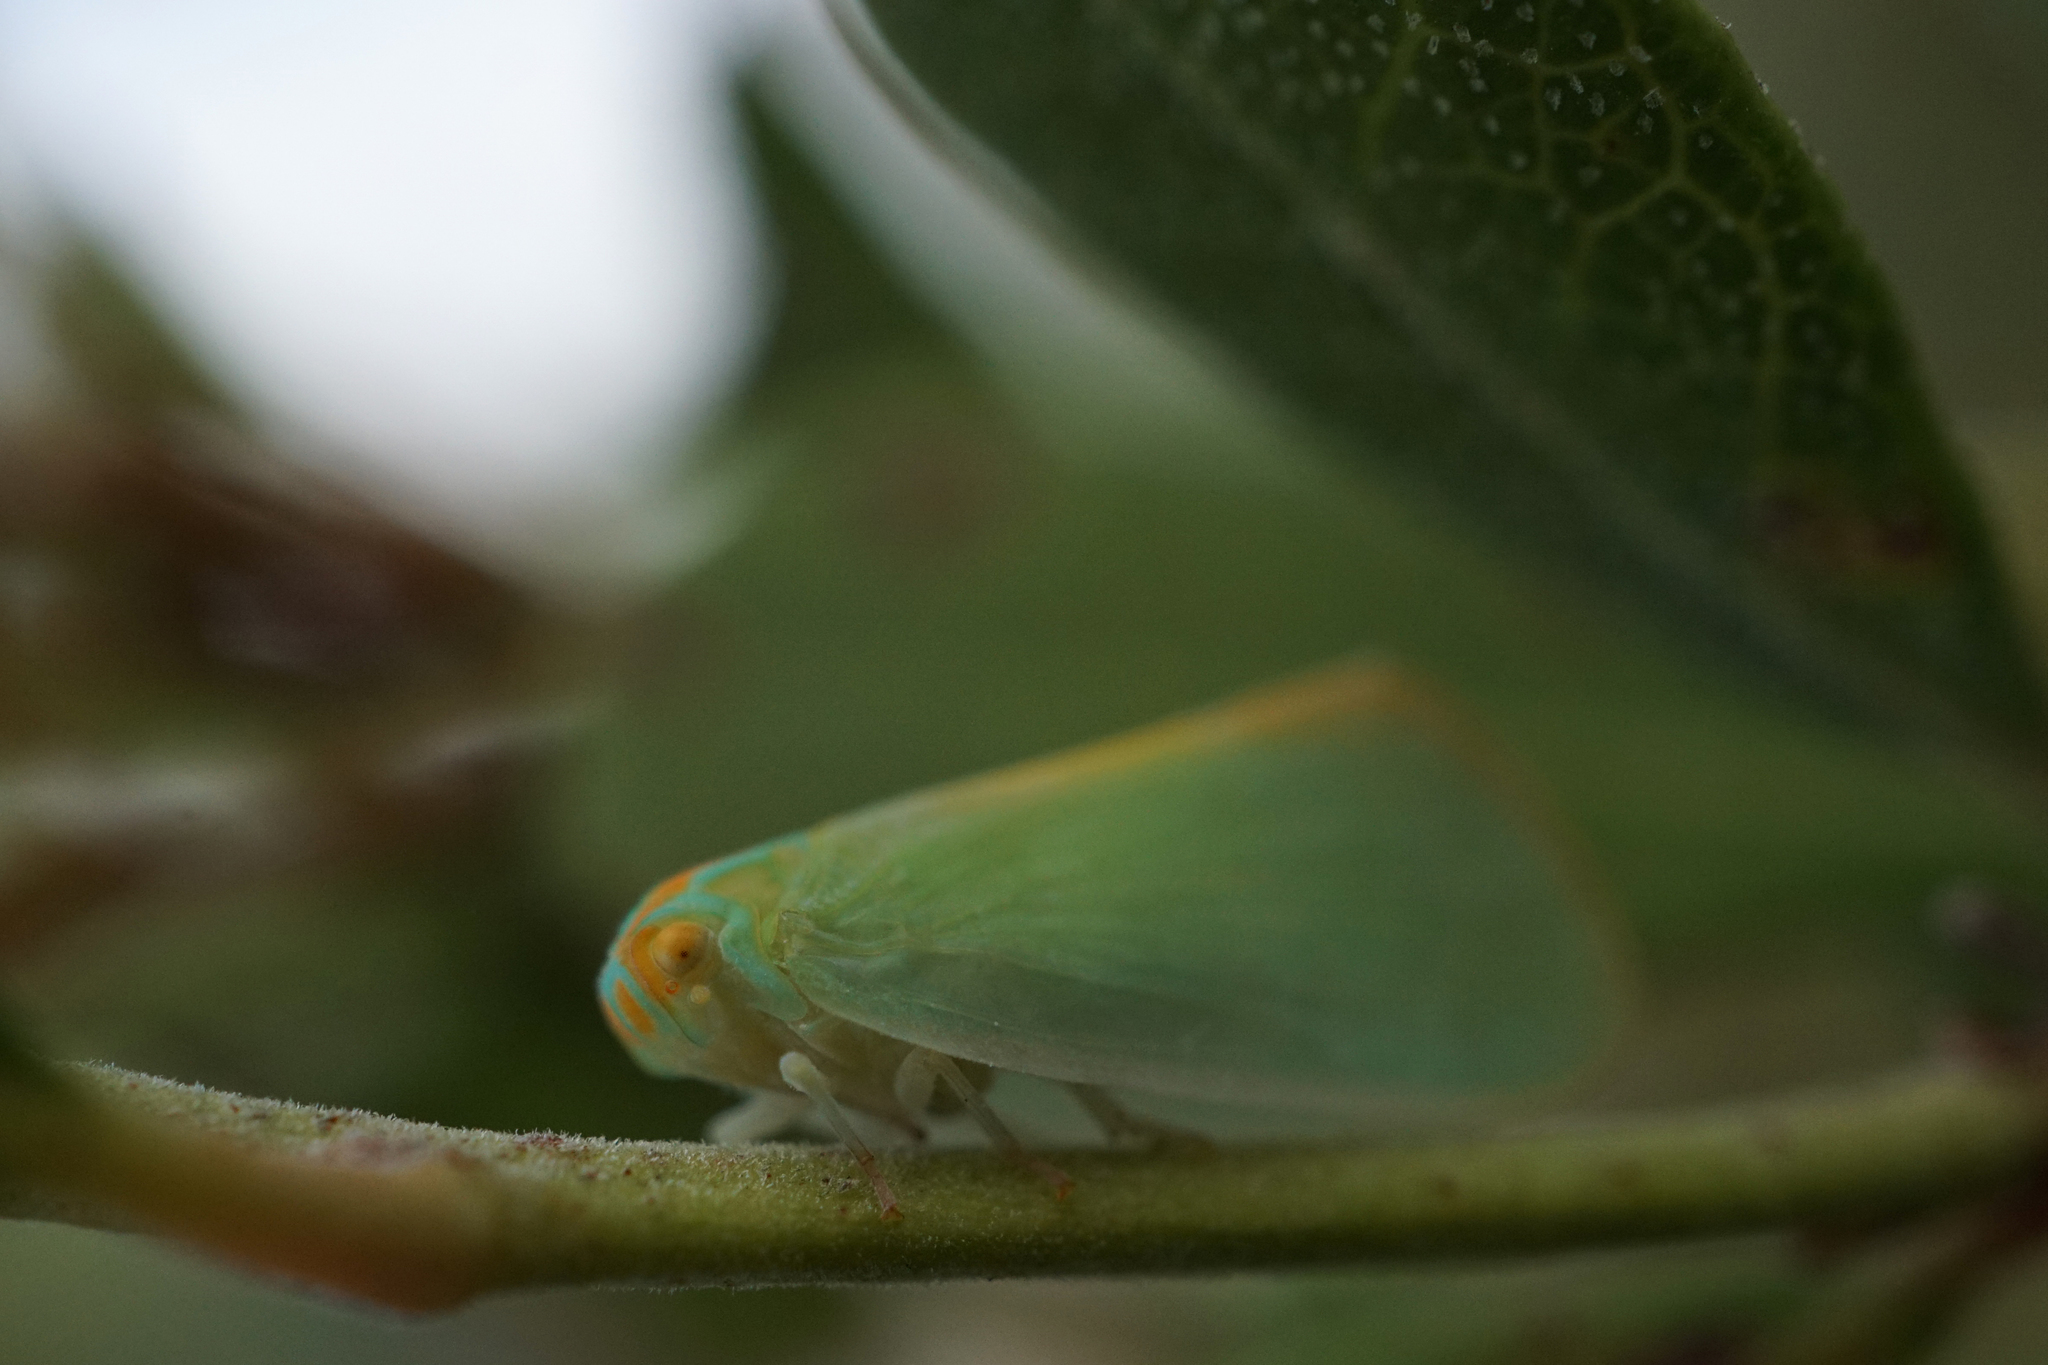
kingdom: Animalia
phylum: Arthropoda
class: Insecta
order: Hemiptera
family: Flatidae
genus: Ormenaria
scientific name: Ormenaria rufifascia
